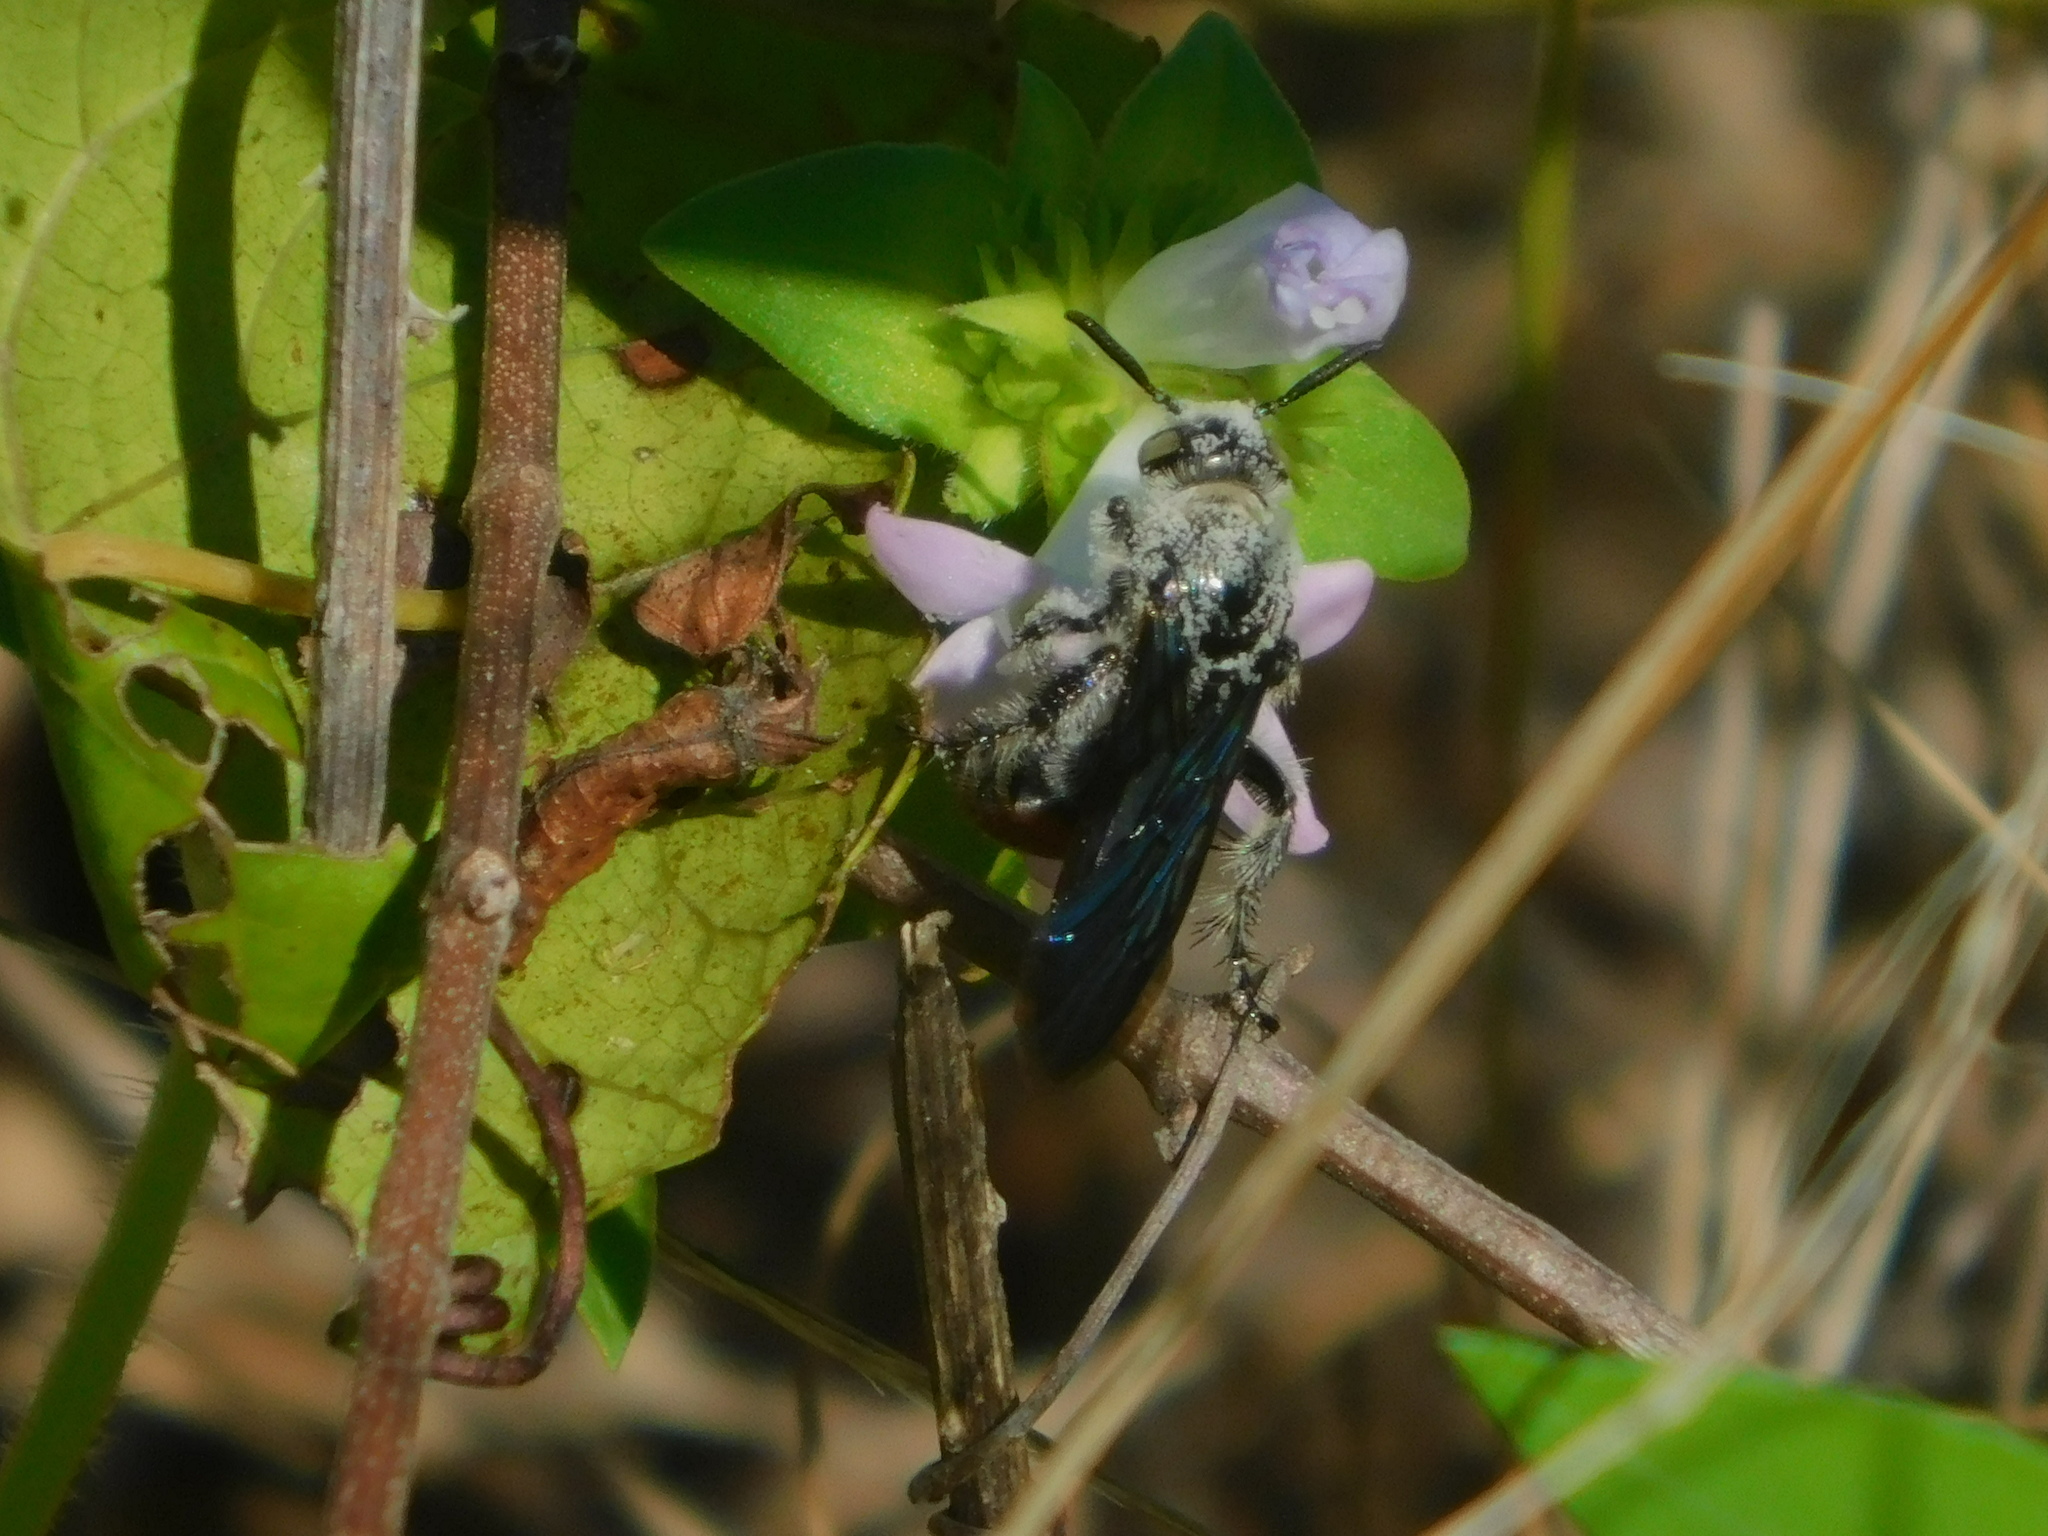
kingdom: Animalia
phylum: Arthropoda
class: Insecta
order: Hymenoptera
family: Scoliidae
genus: Dielis
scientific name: Dielis dorsata
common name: Scoliid wasp
